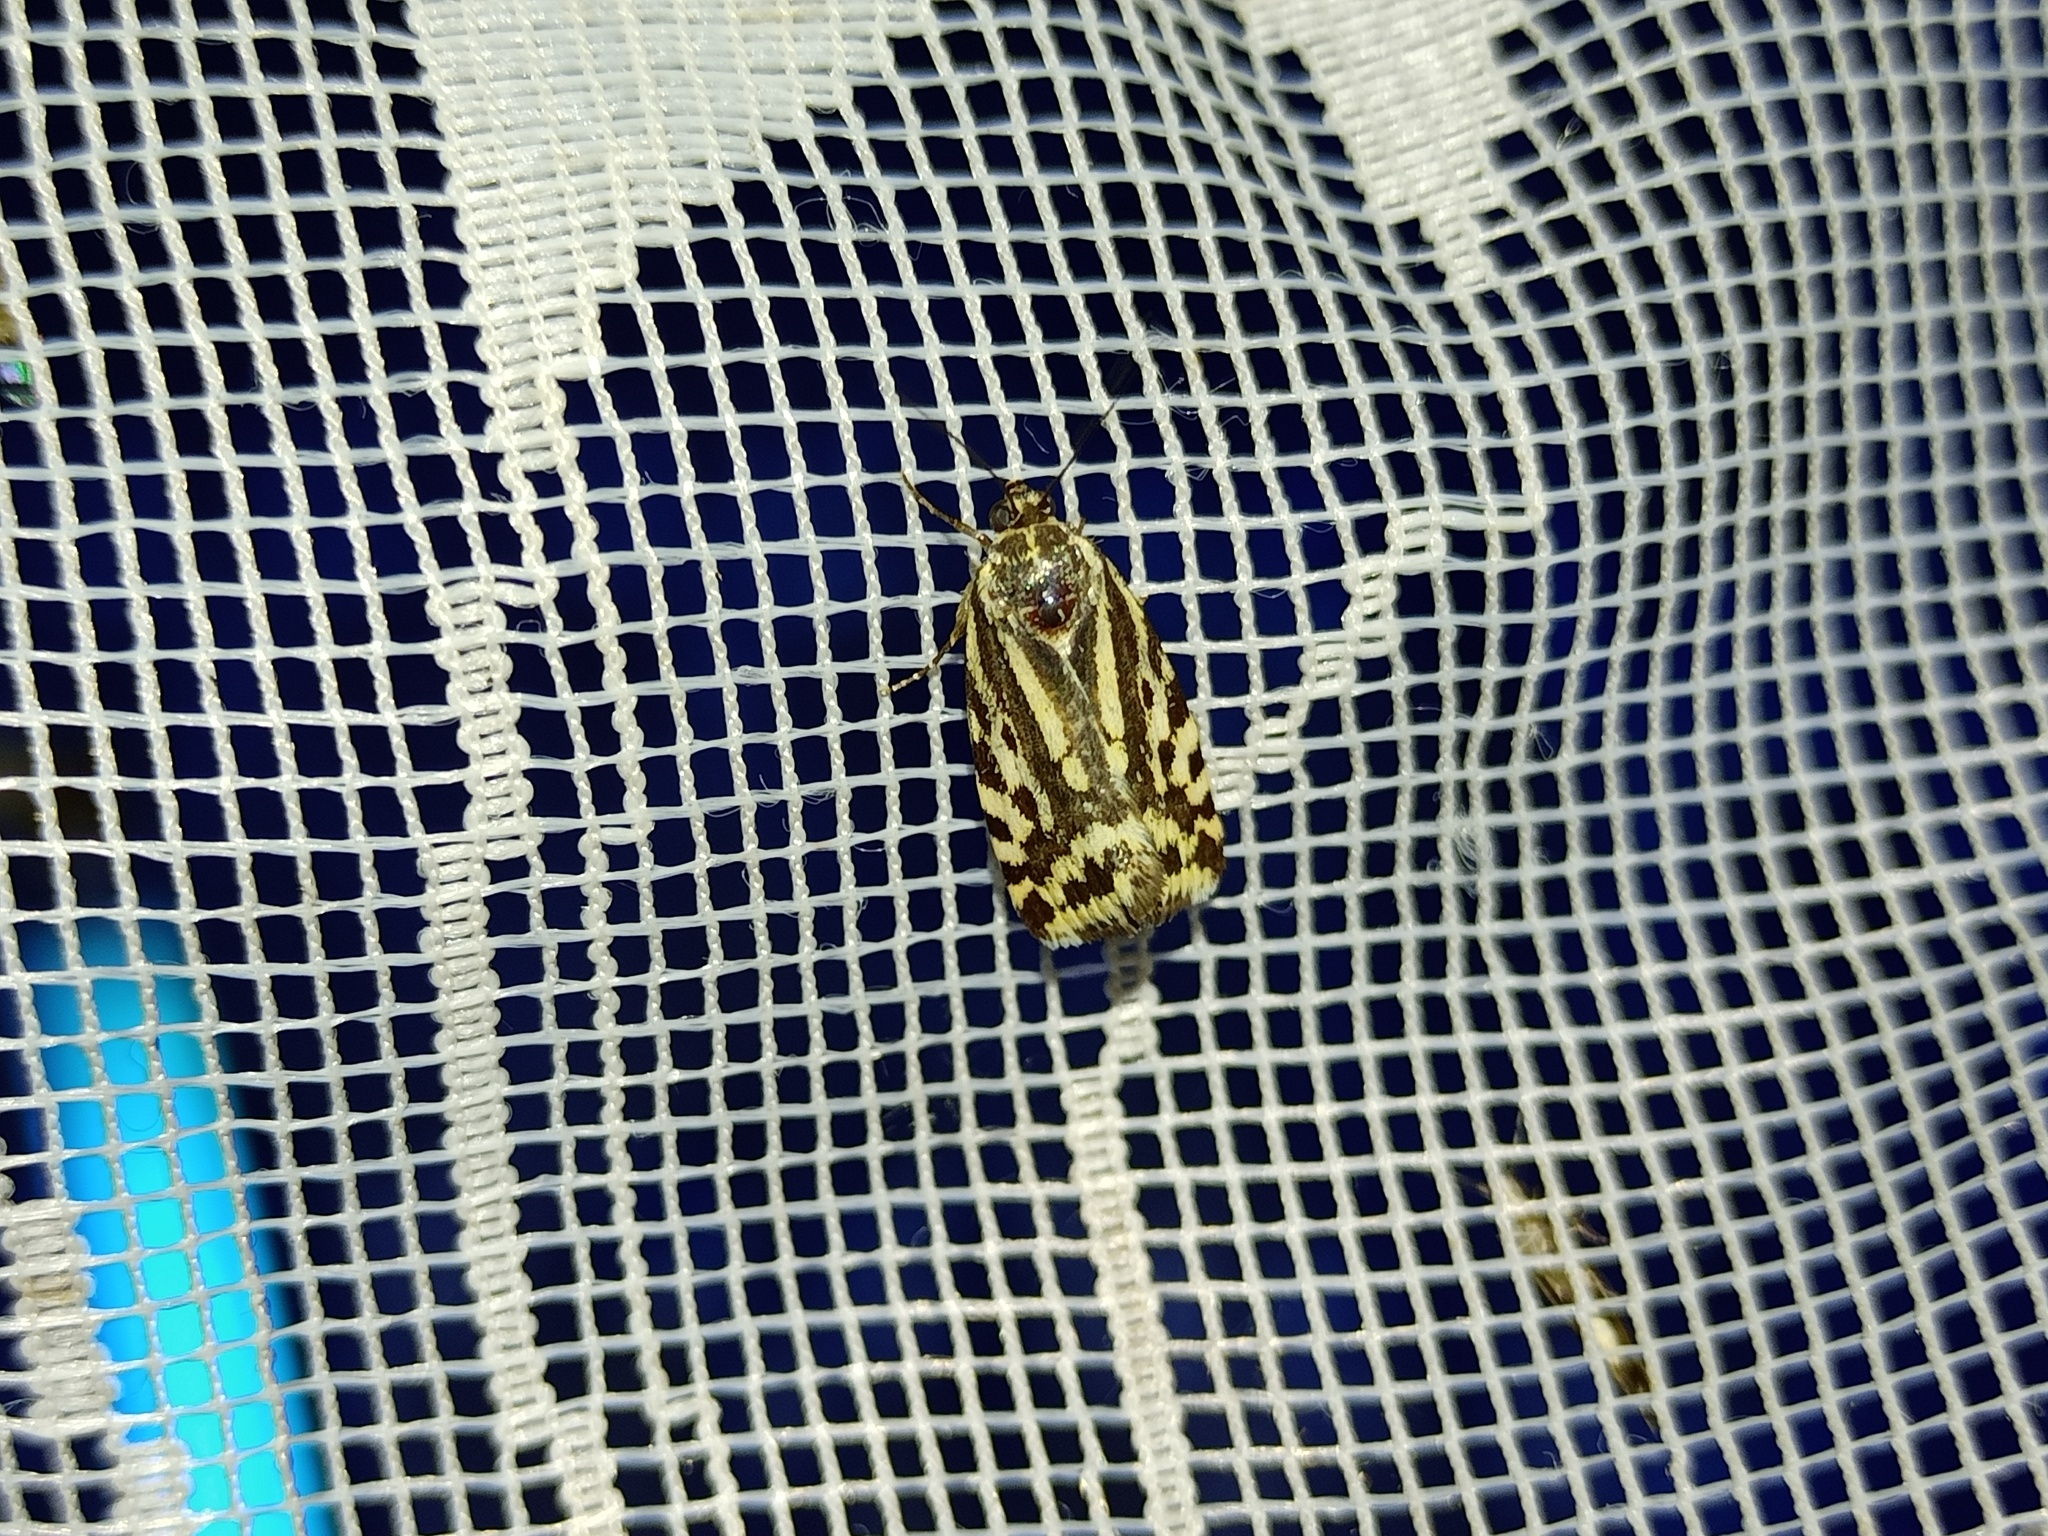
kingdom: Animalia
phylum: Arthropoda
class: Insecta
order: Lepidoptera
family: Noctuidae
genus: Acontia
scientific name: Acontia trabealis
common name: Spotted sulphur
